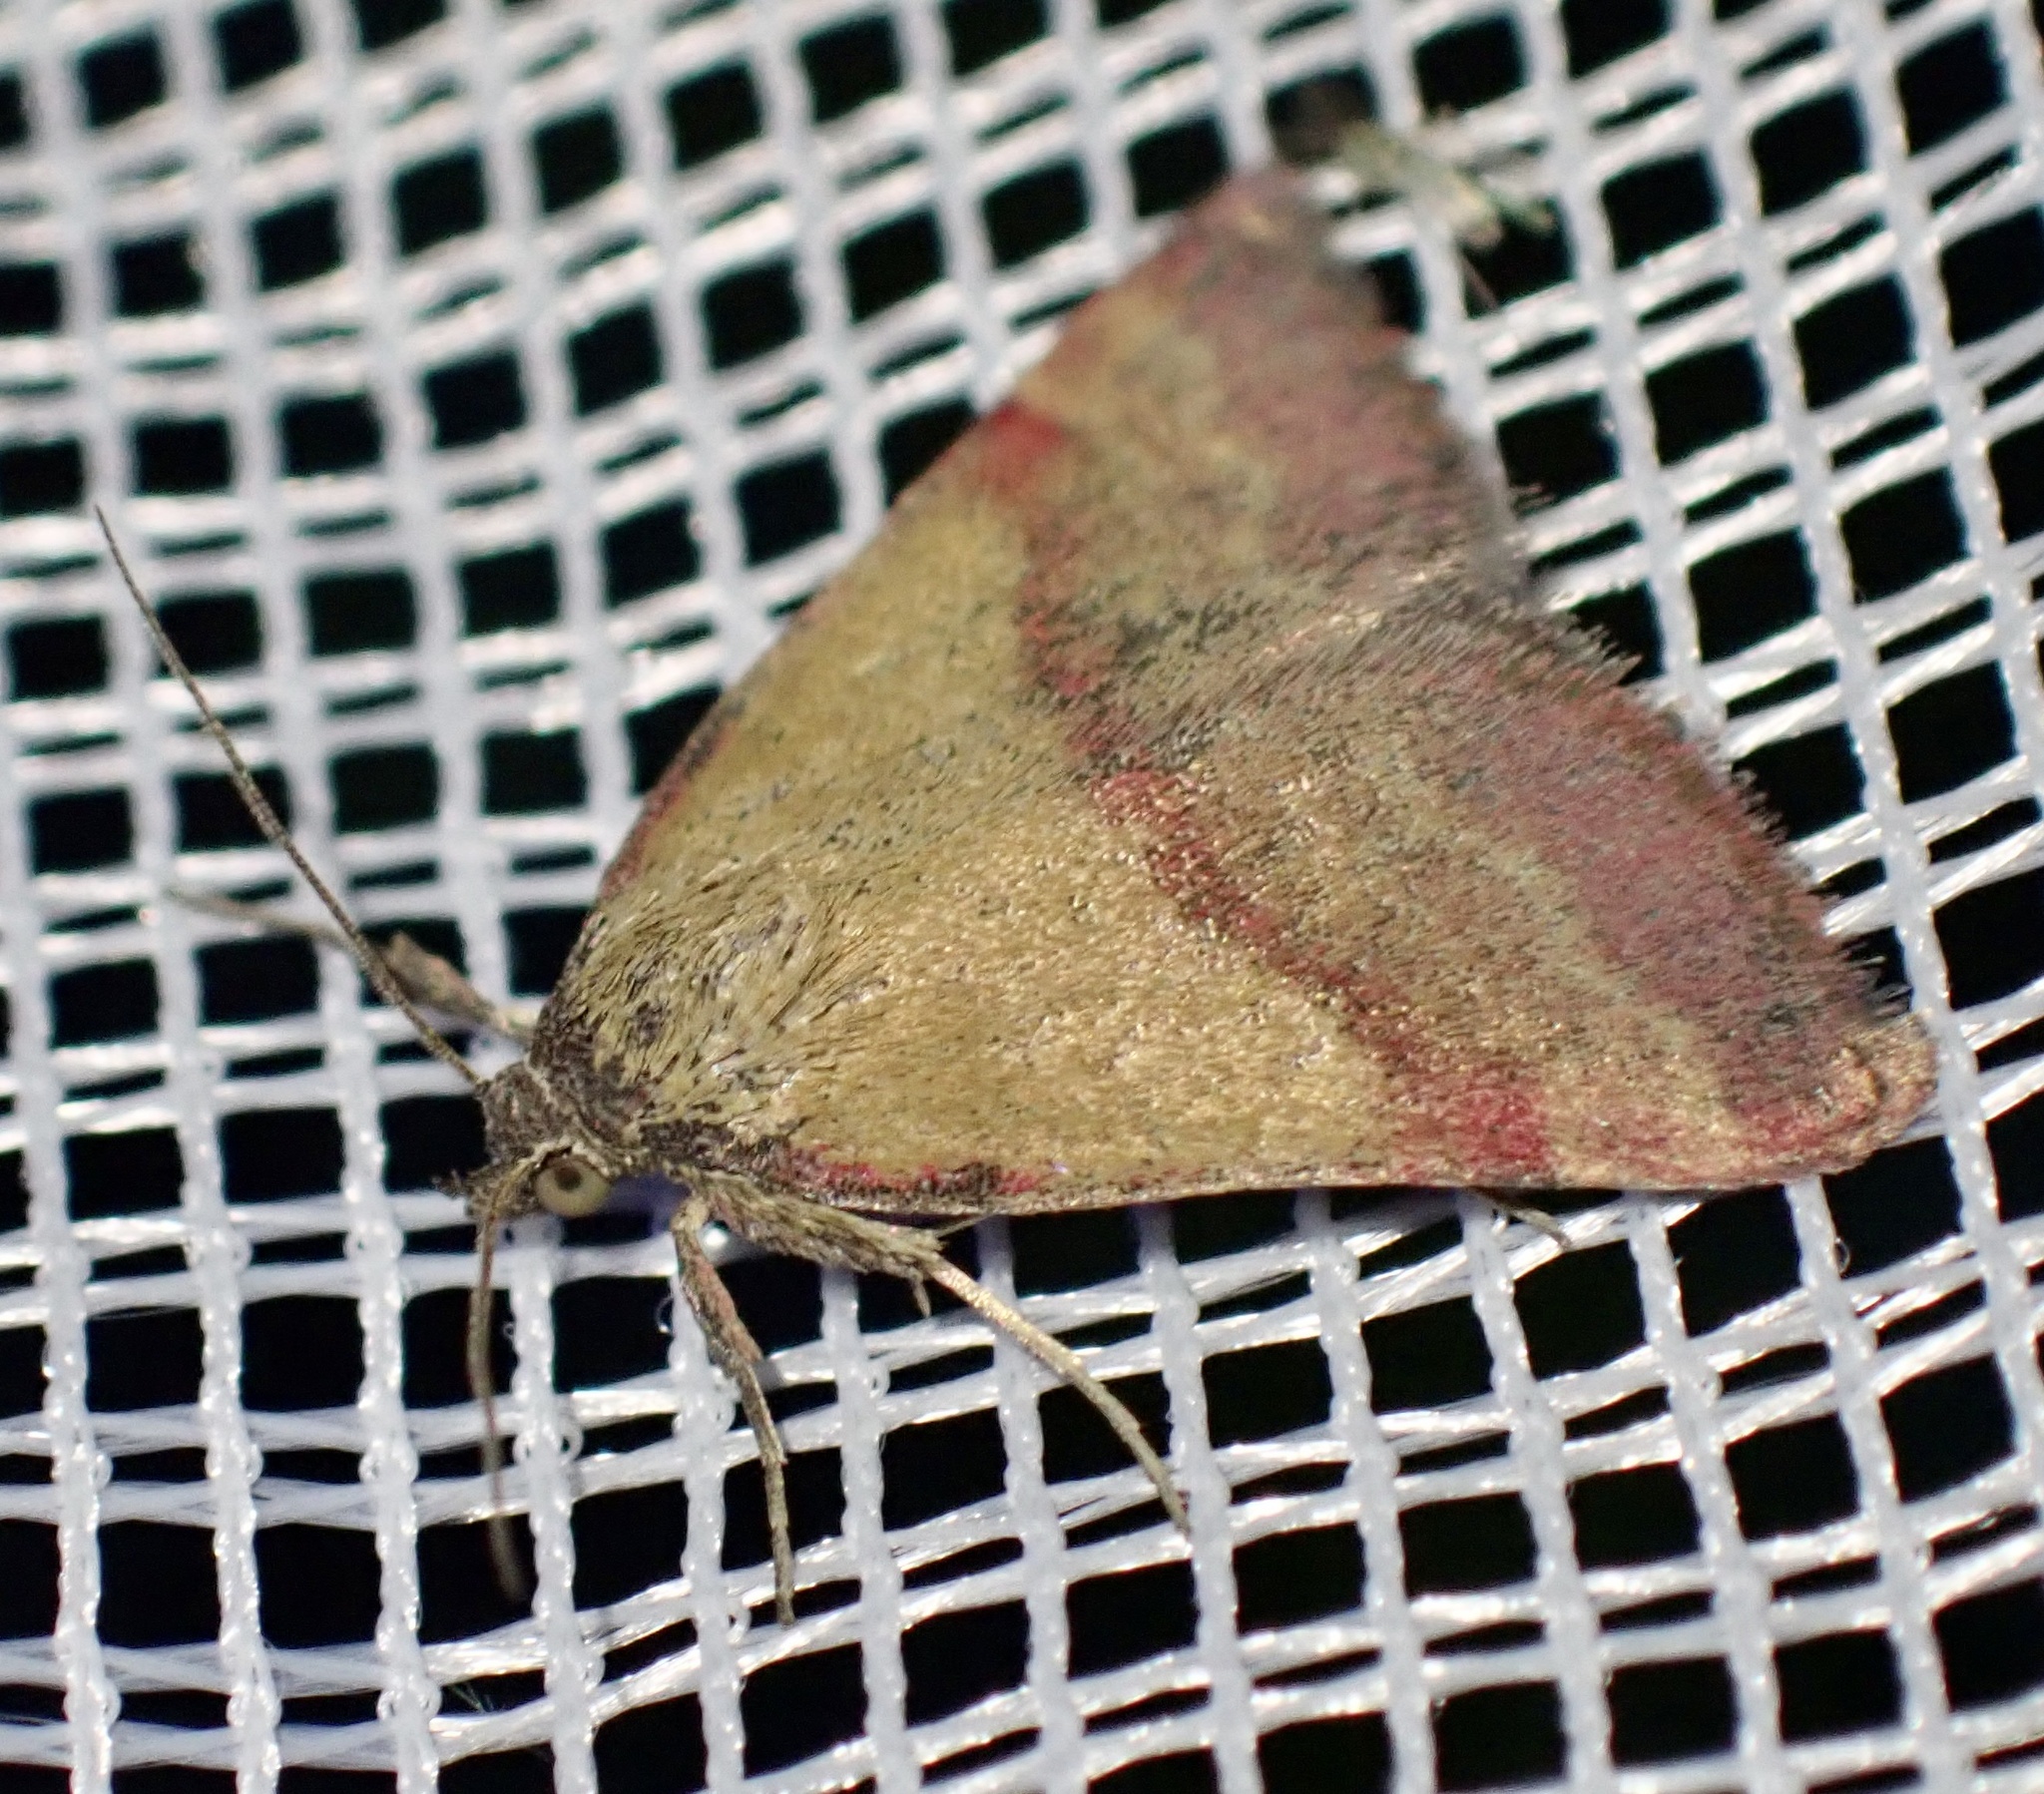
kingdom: Animalia
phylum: Arthropoda
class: Insecta
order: Lepidoptera
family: Erebidae
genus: Phytometra
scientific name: Phytometra viridaria
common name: Small purple-barred
